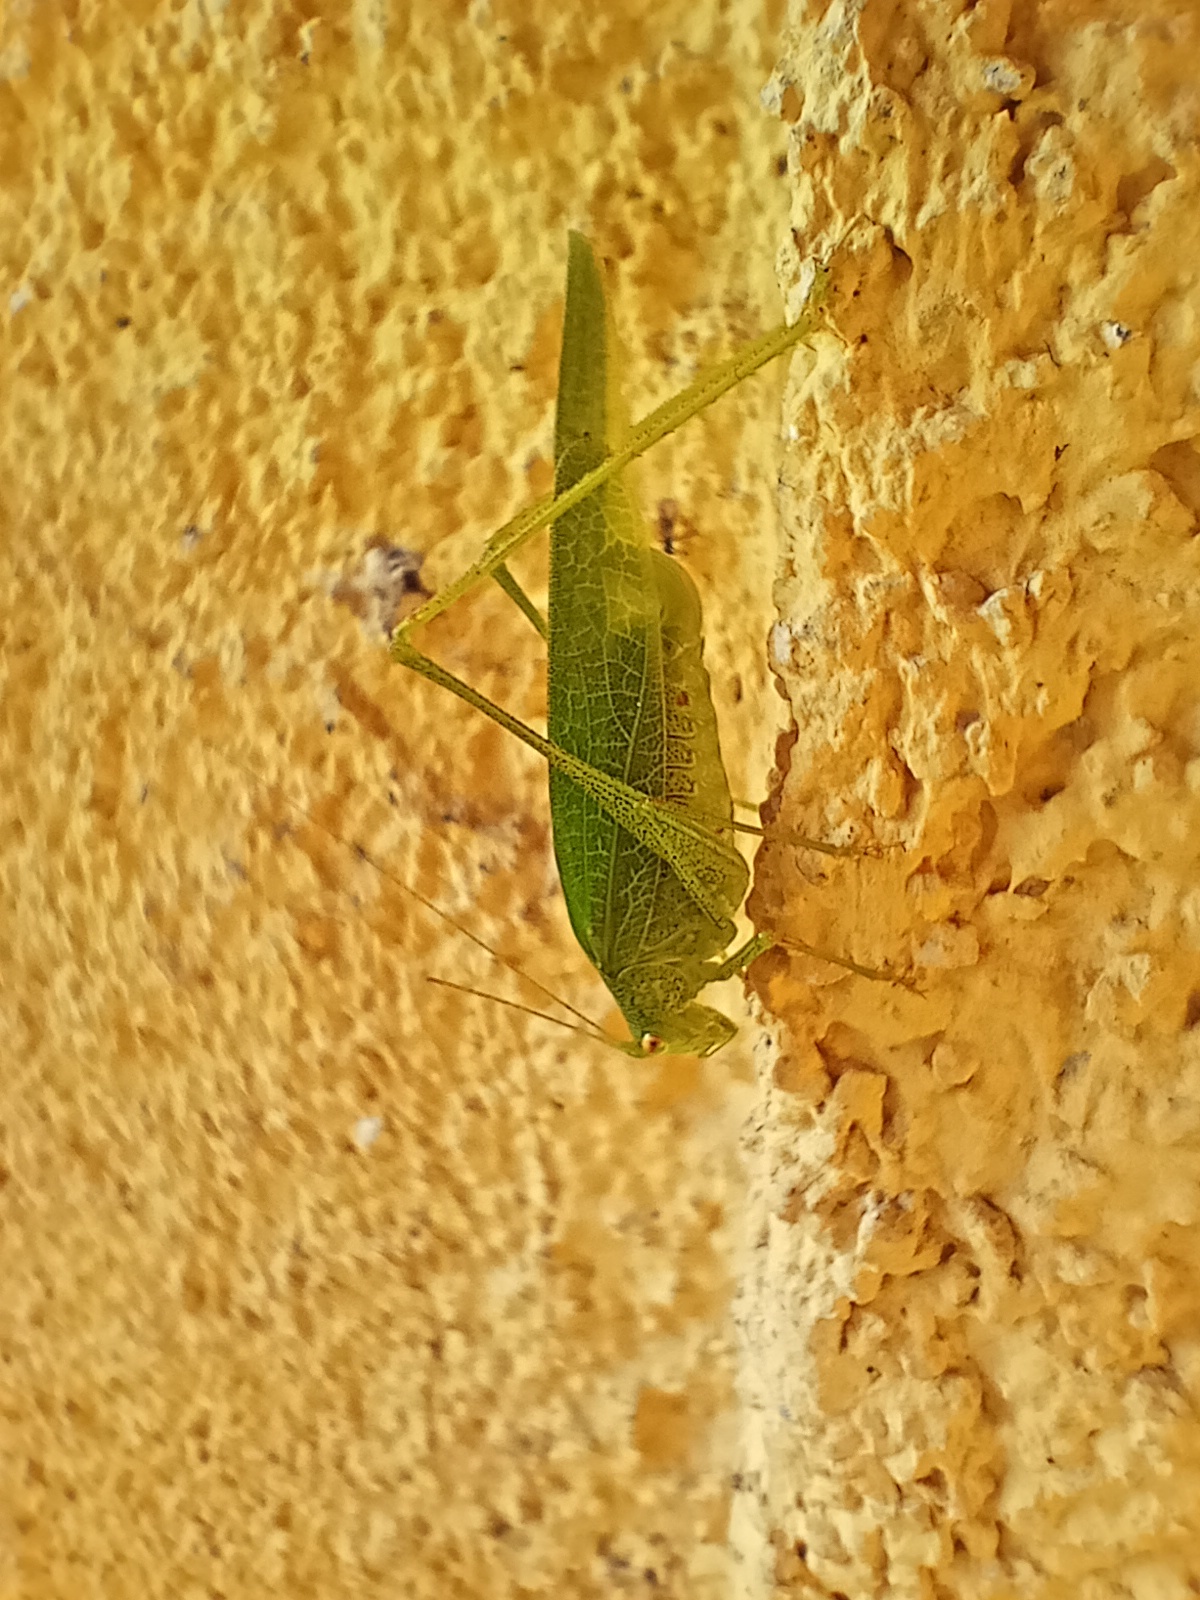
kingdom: Animalia
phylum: Arthropoda
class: Insecta
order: Orthoptera
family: Tettigoniidae
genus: Phaneroptera
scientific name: Phaneroptera nana
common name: Southern sickle bush-cricket
